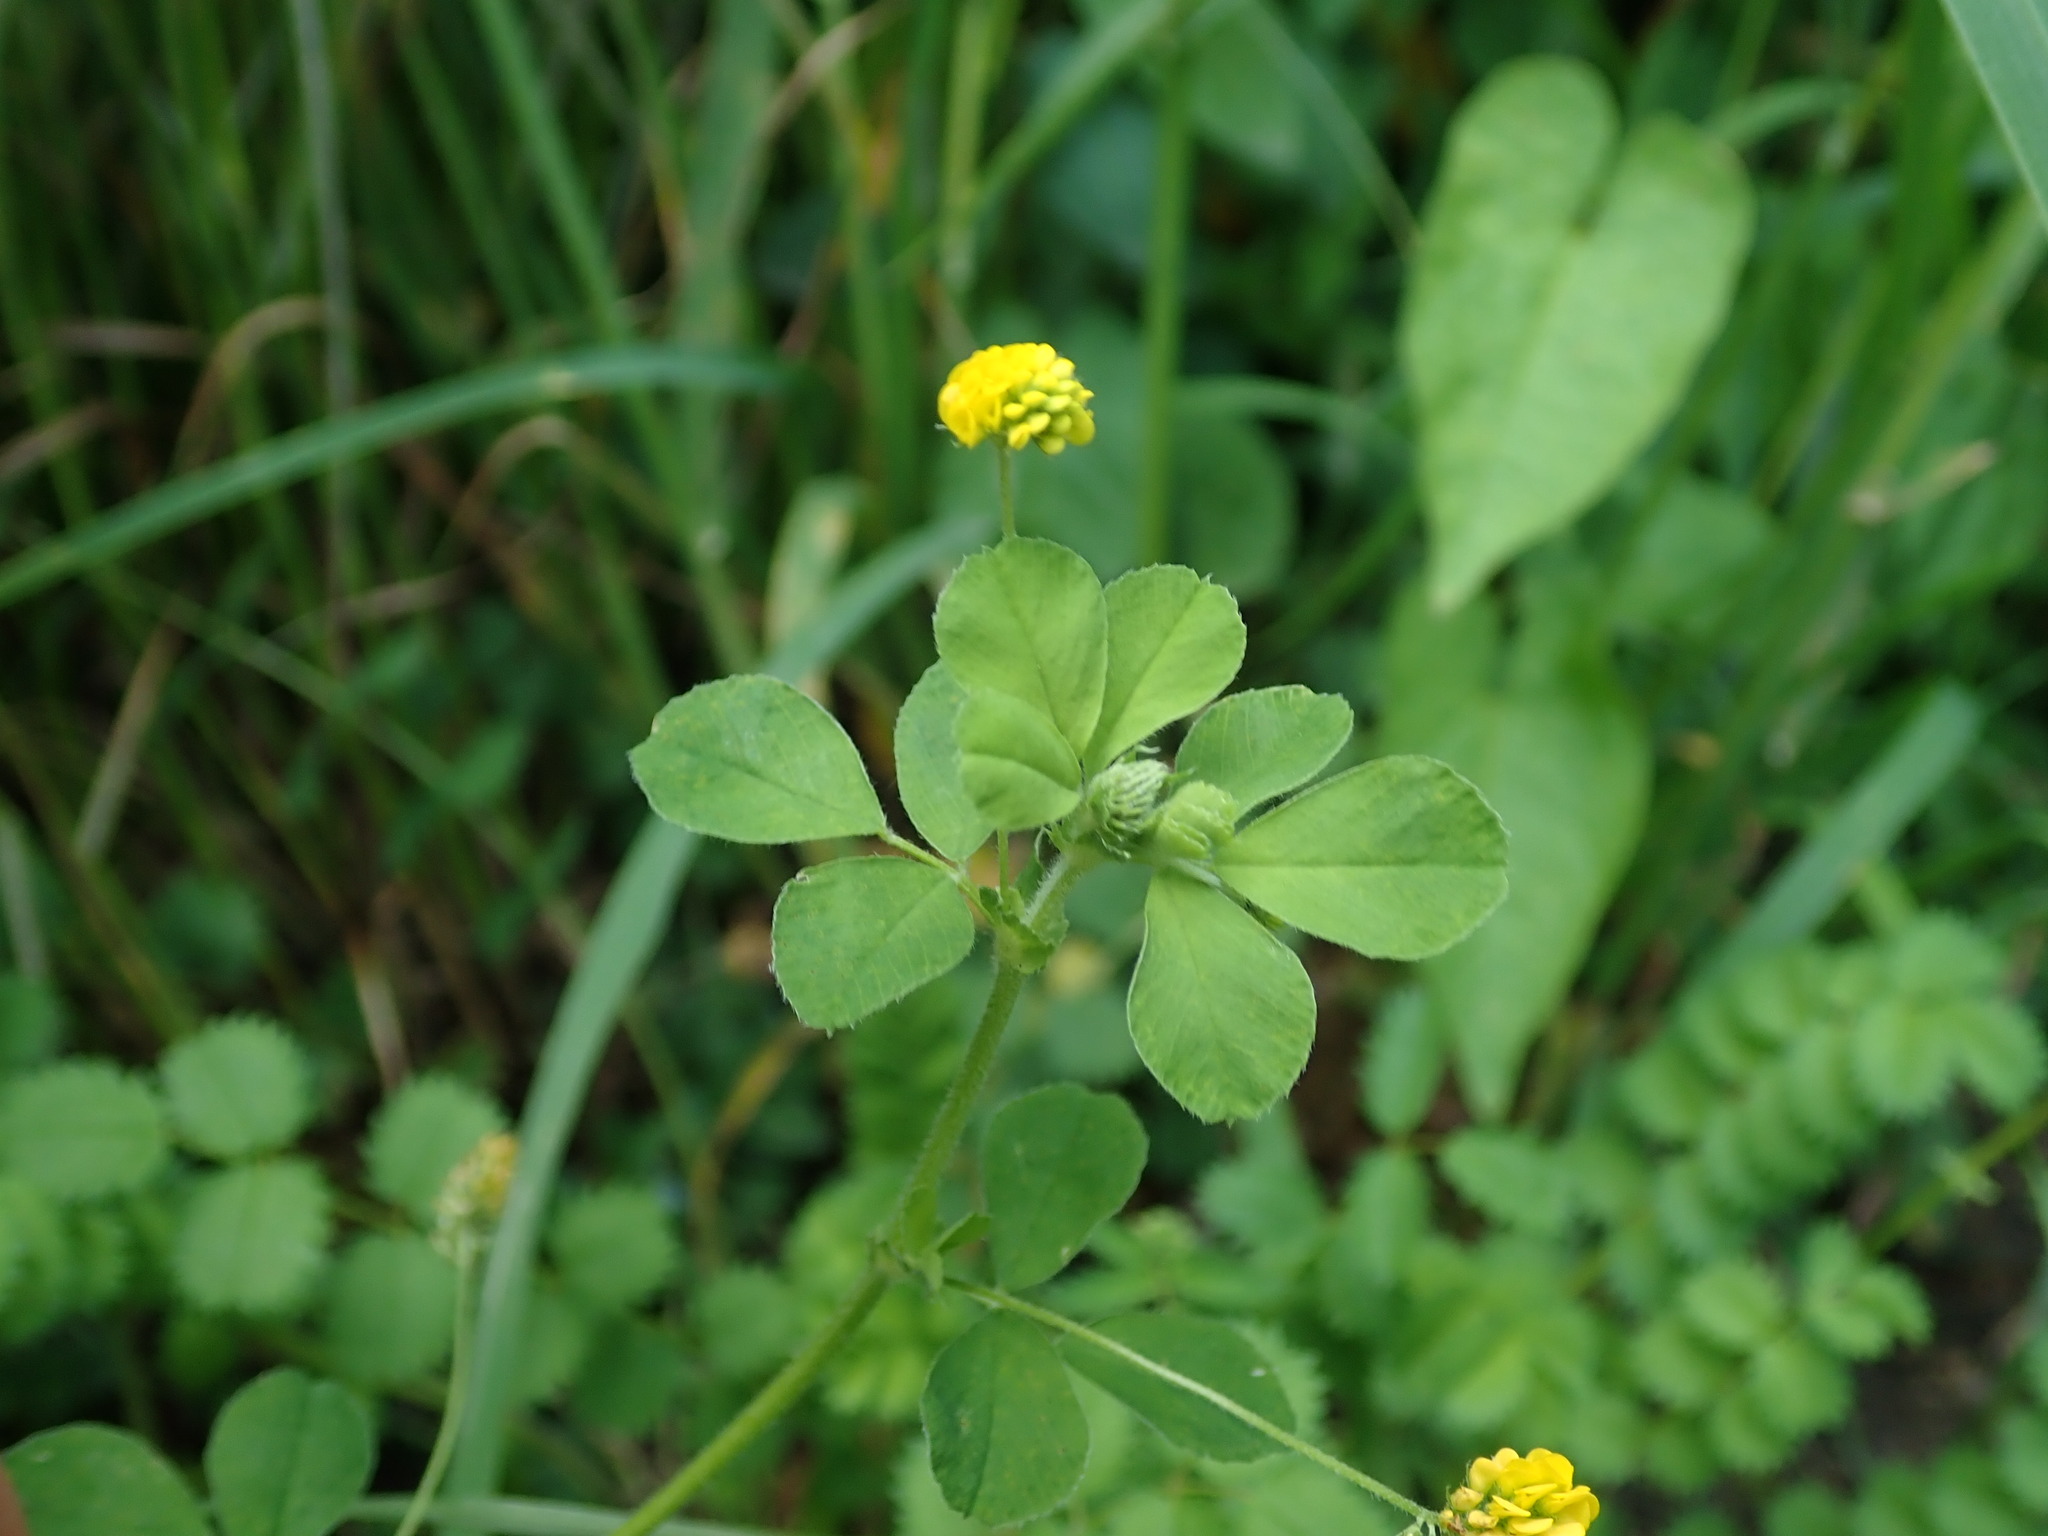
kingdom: Plantae
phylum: Tracheophyta
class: Magnoliopsida
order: Fabales
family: Fabaceae
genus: Medicago
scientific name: Medicago lupulina
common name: Black medick
